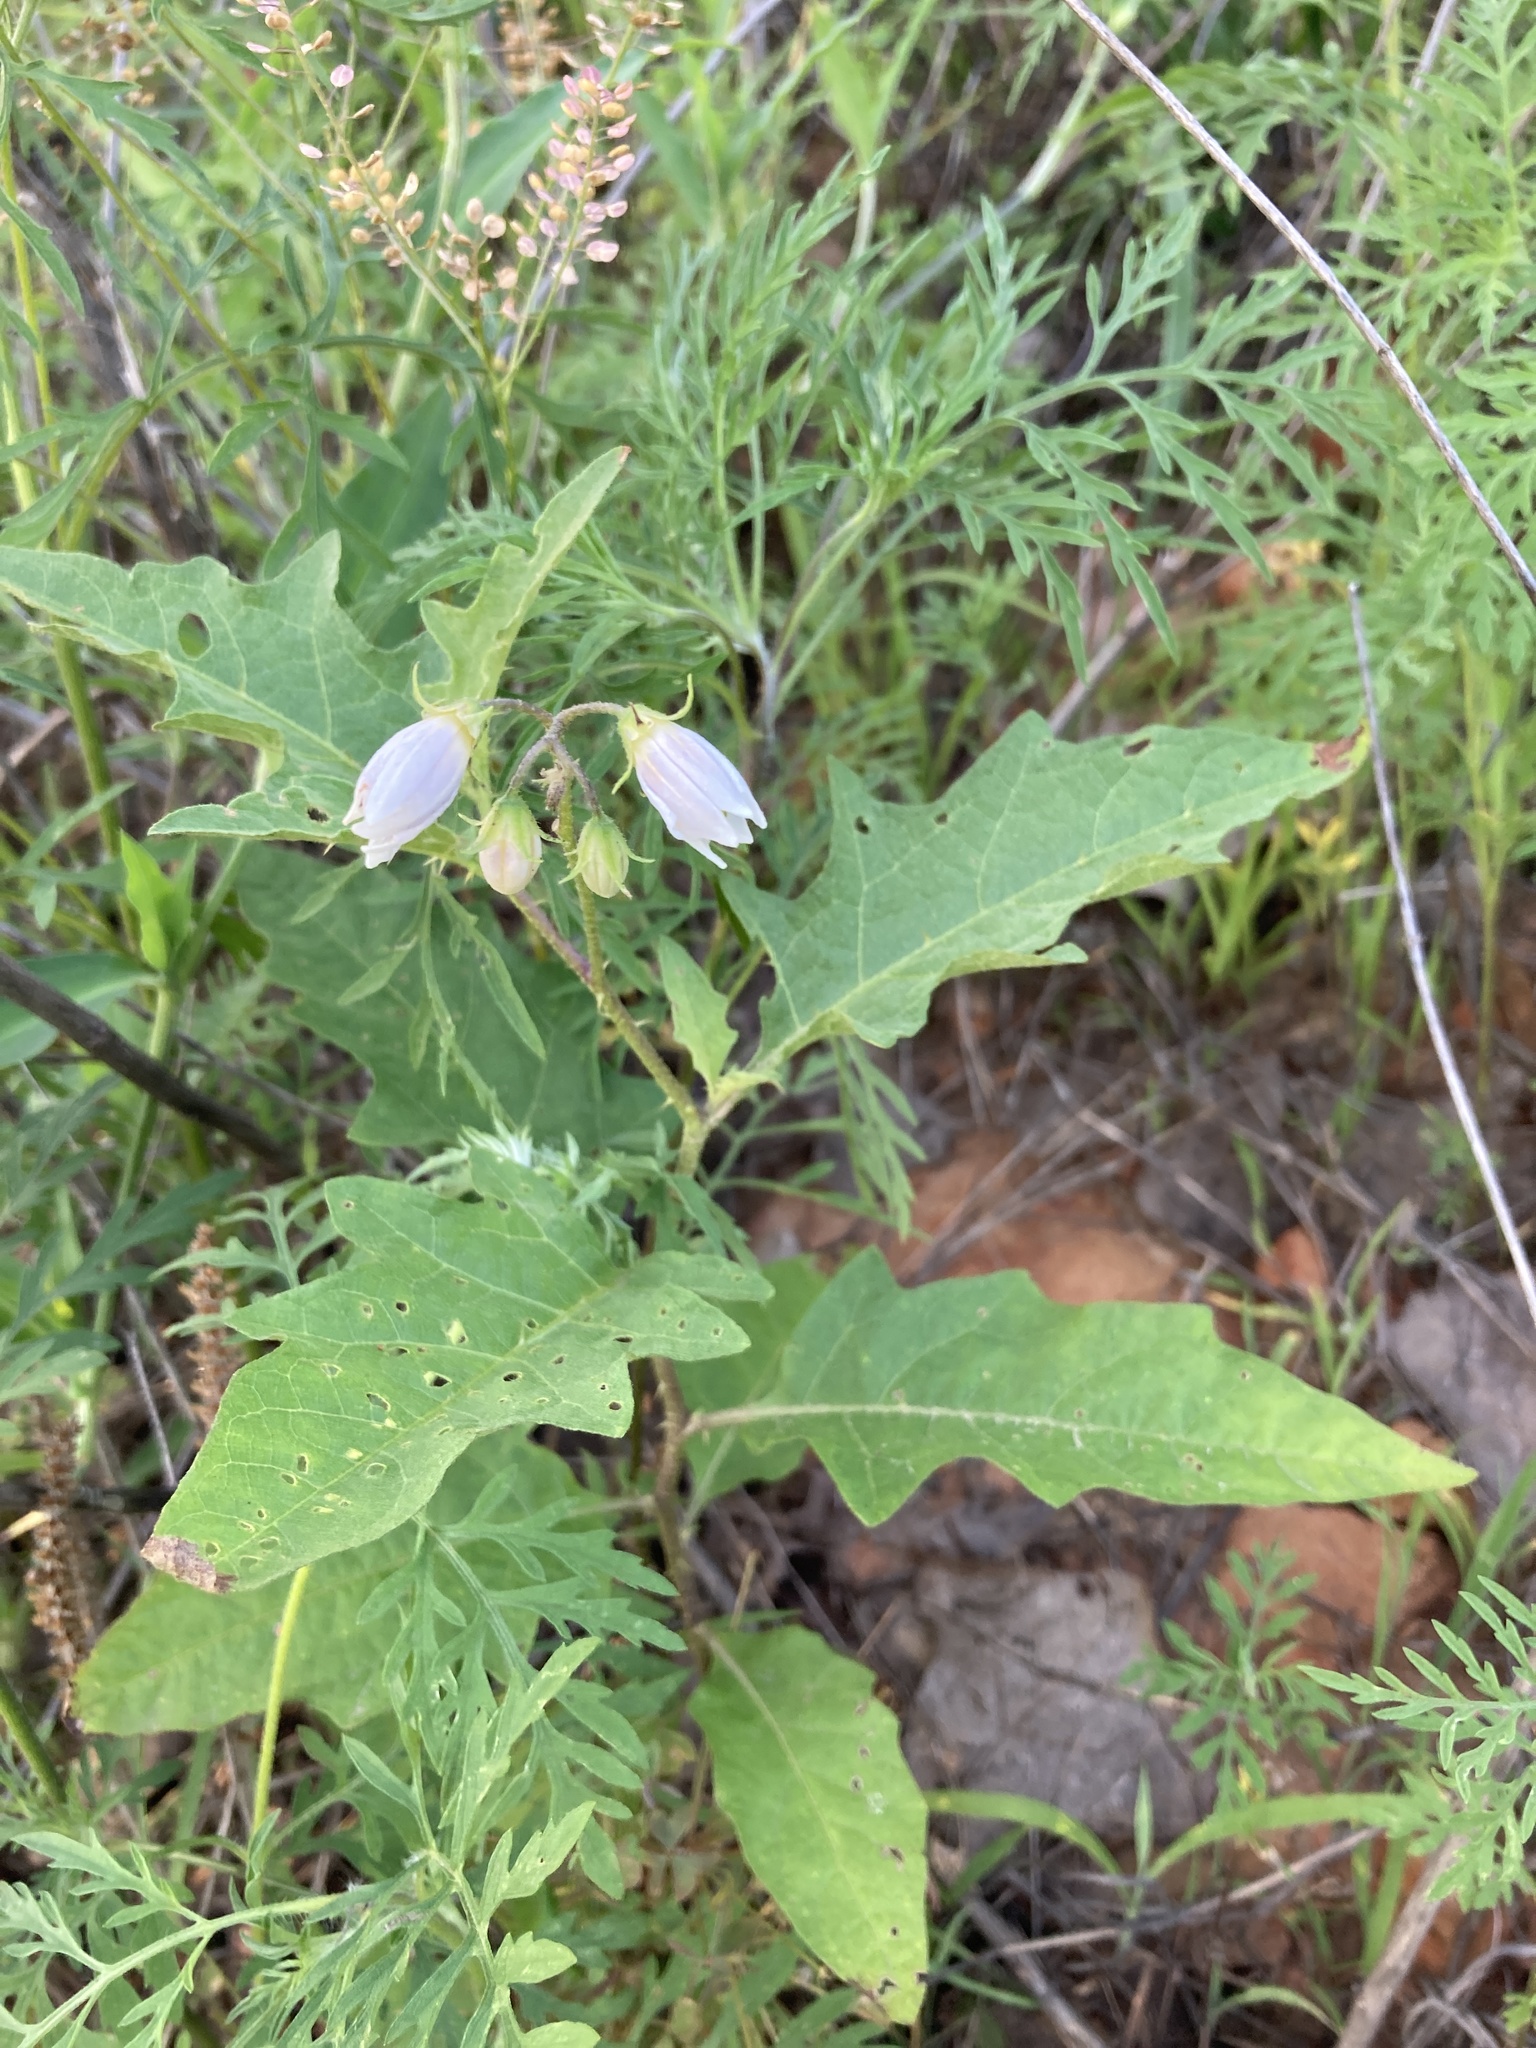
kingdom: Plantae
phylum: Tracheophyta
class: Magnoliopsida
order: Solanales
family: Solanaceae
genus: Solanum
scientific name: Solanum carolinense
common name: Horse-nettle
